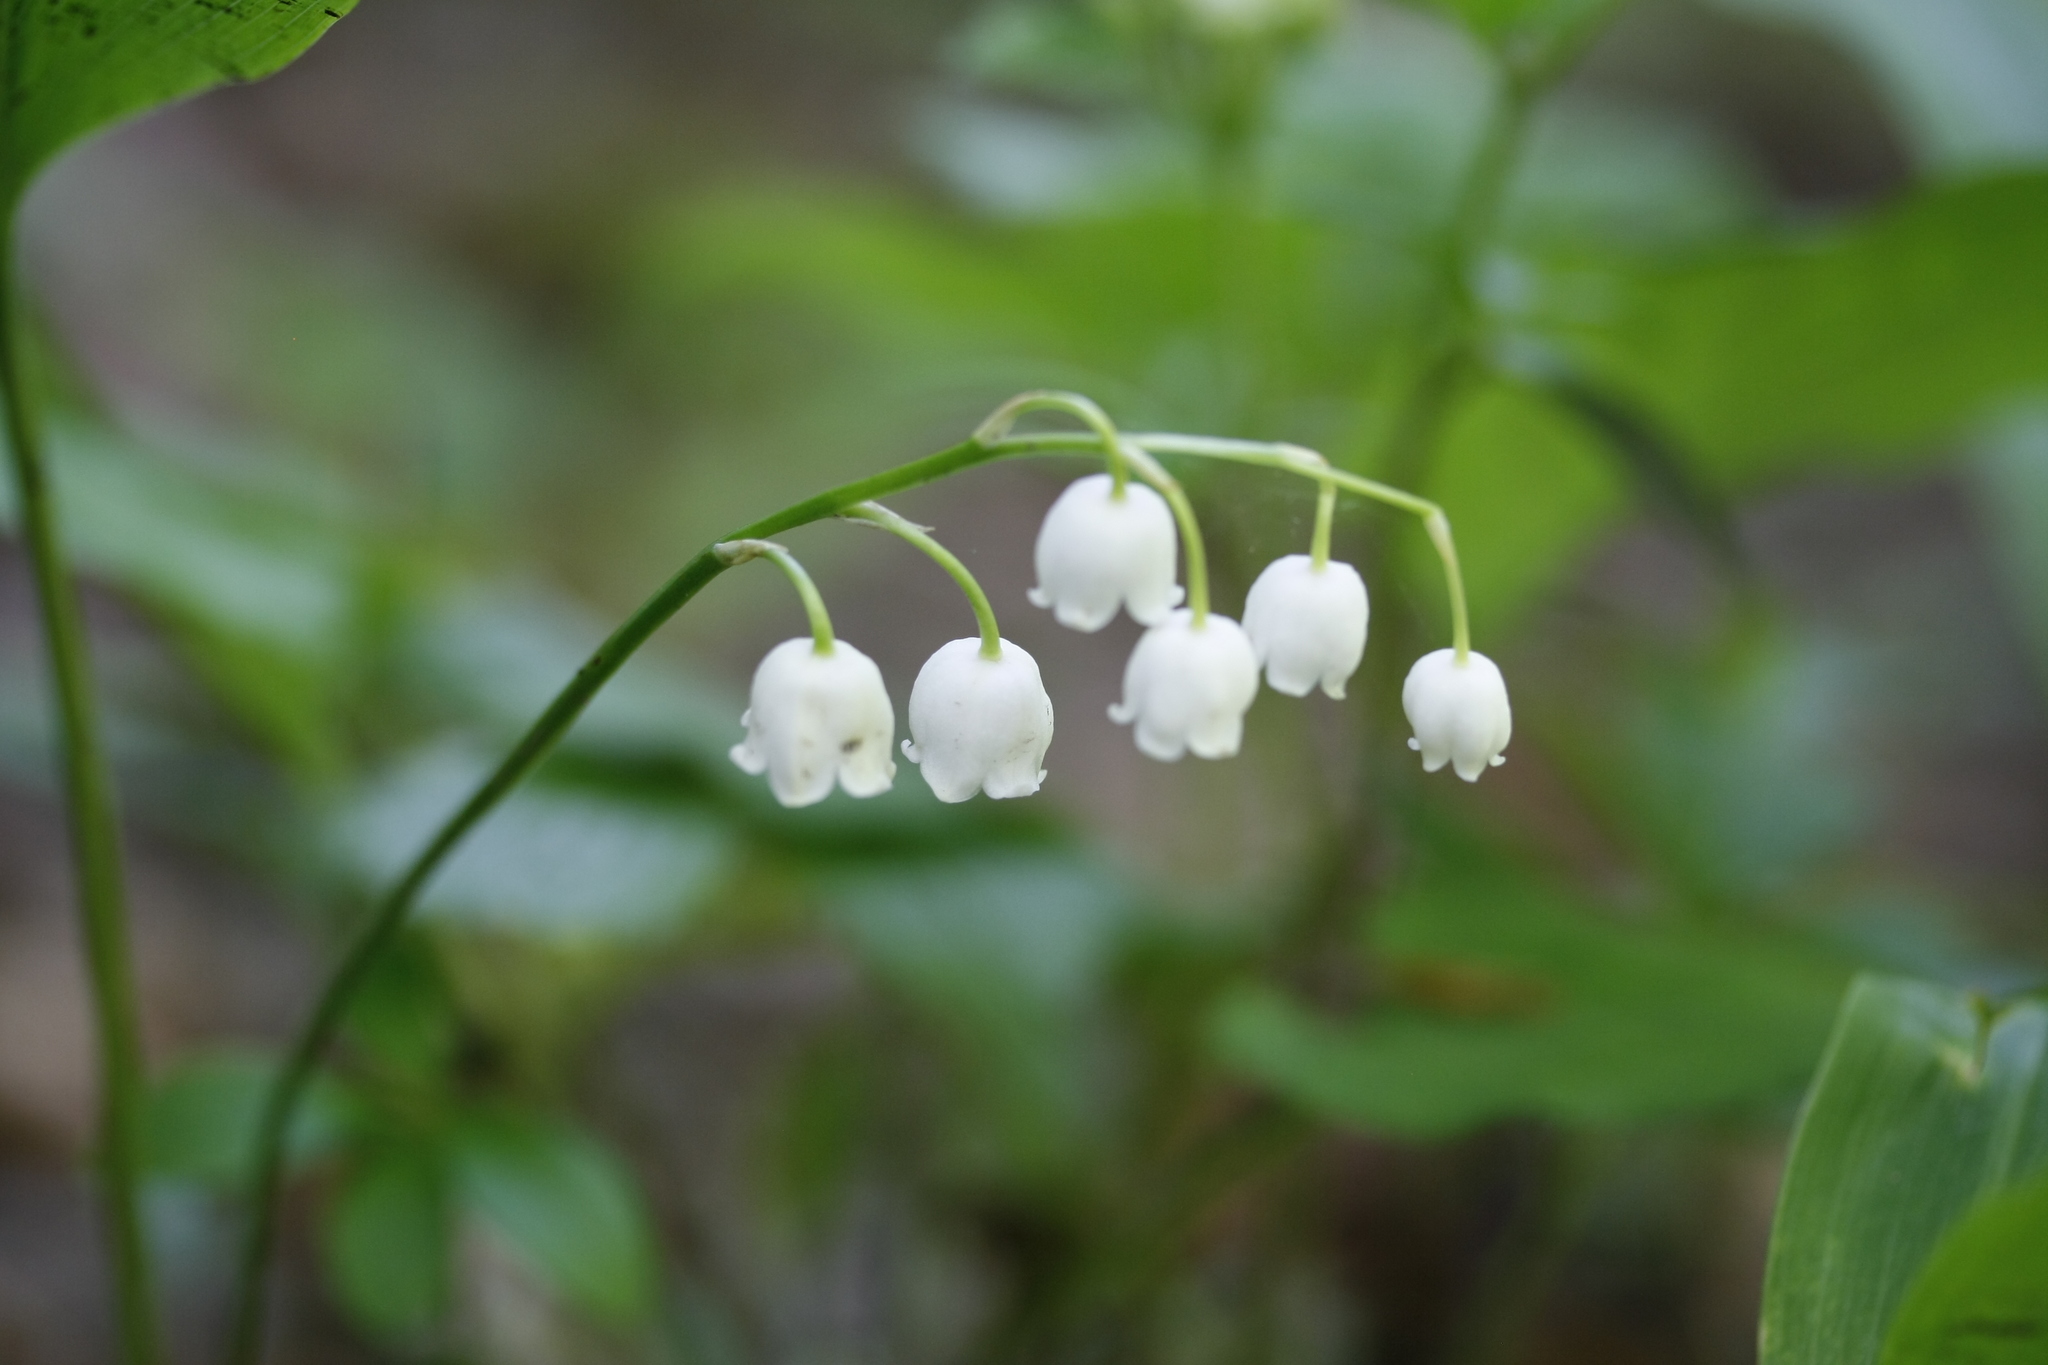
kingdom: Plantae
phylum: Tracheophyta
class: Liliopsida
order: Asparagales
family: Asparagaceae
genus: Convallaria
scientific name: Convallaria majalis
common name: Lily-of-the-valley
